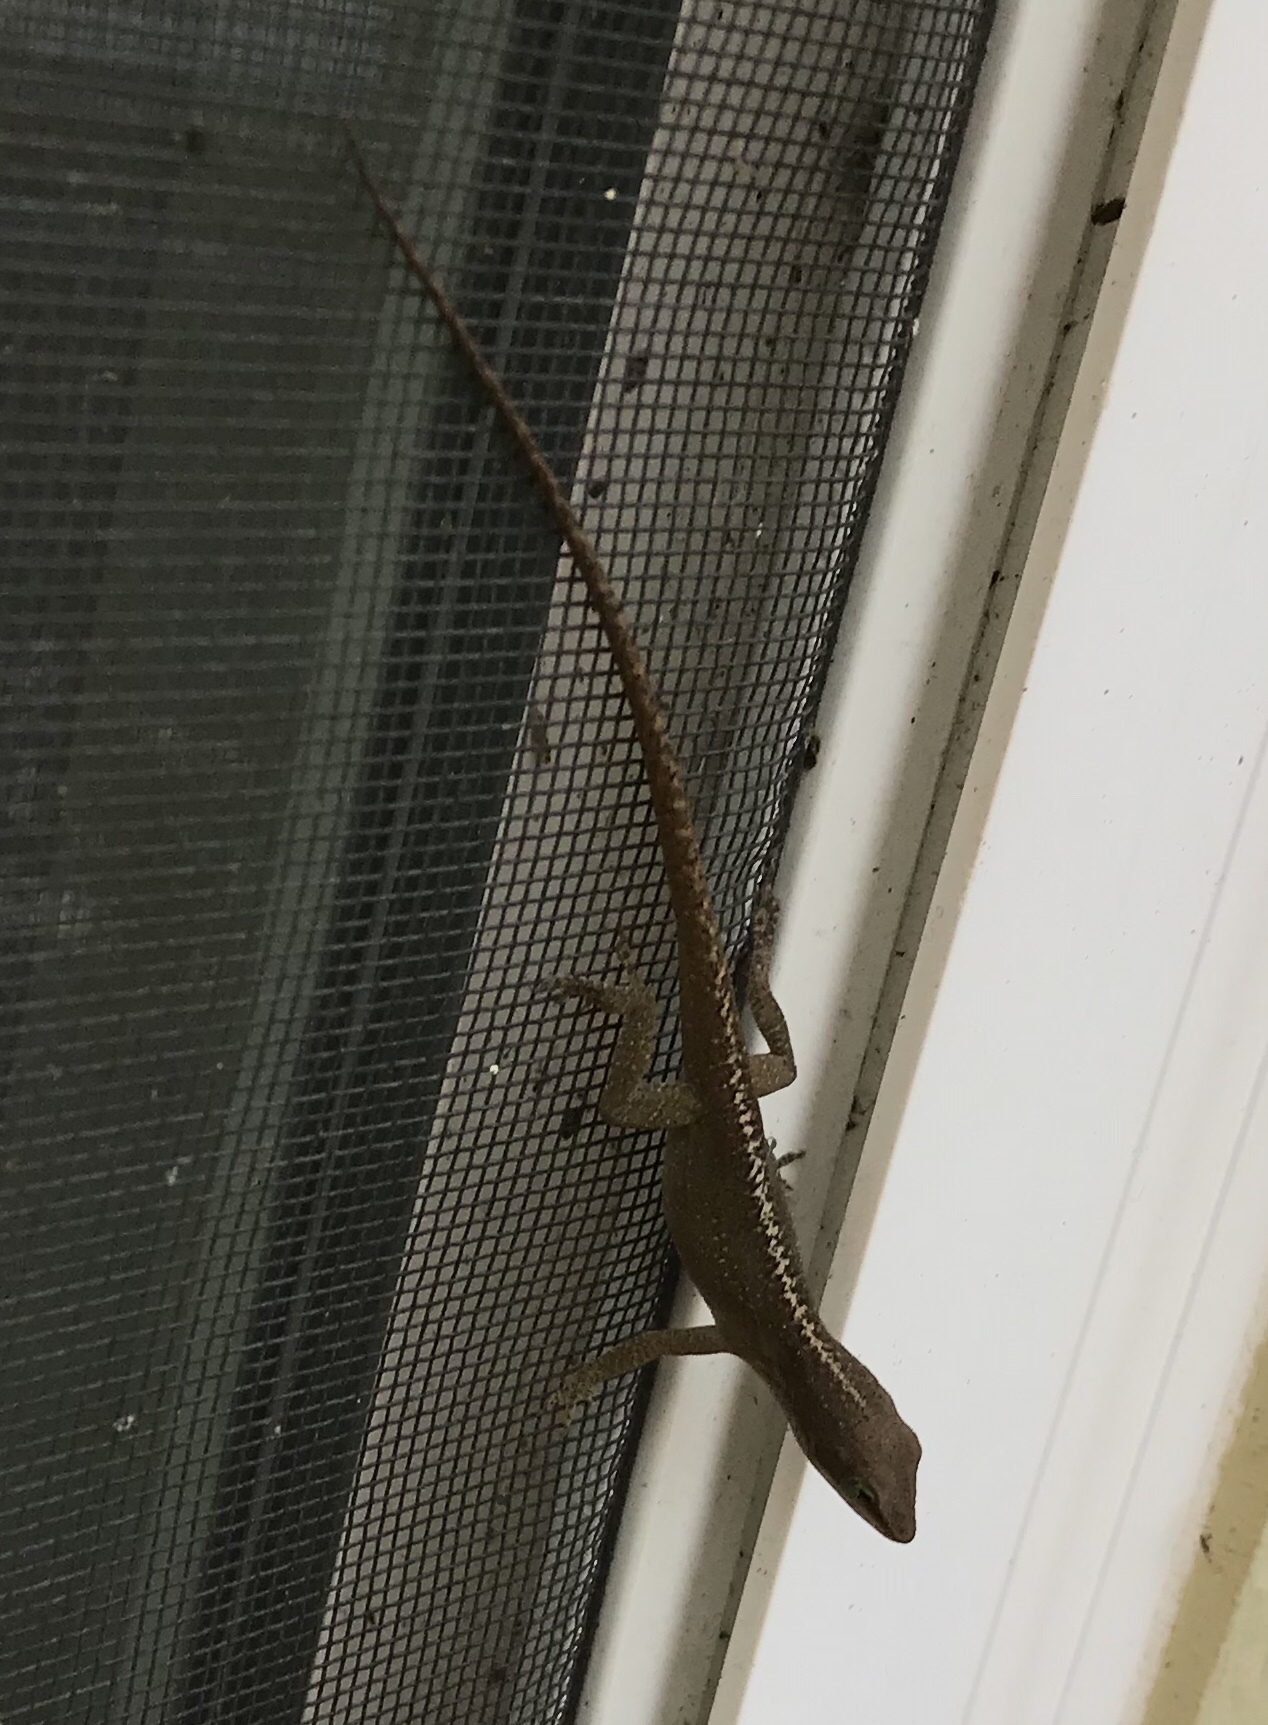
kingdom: Animalia
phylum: Chordata
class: Squamata
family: Dactyloidae
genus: Anolis
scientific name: Anolis carolinensis
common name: Green anole
